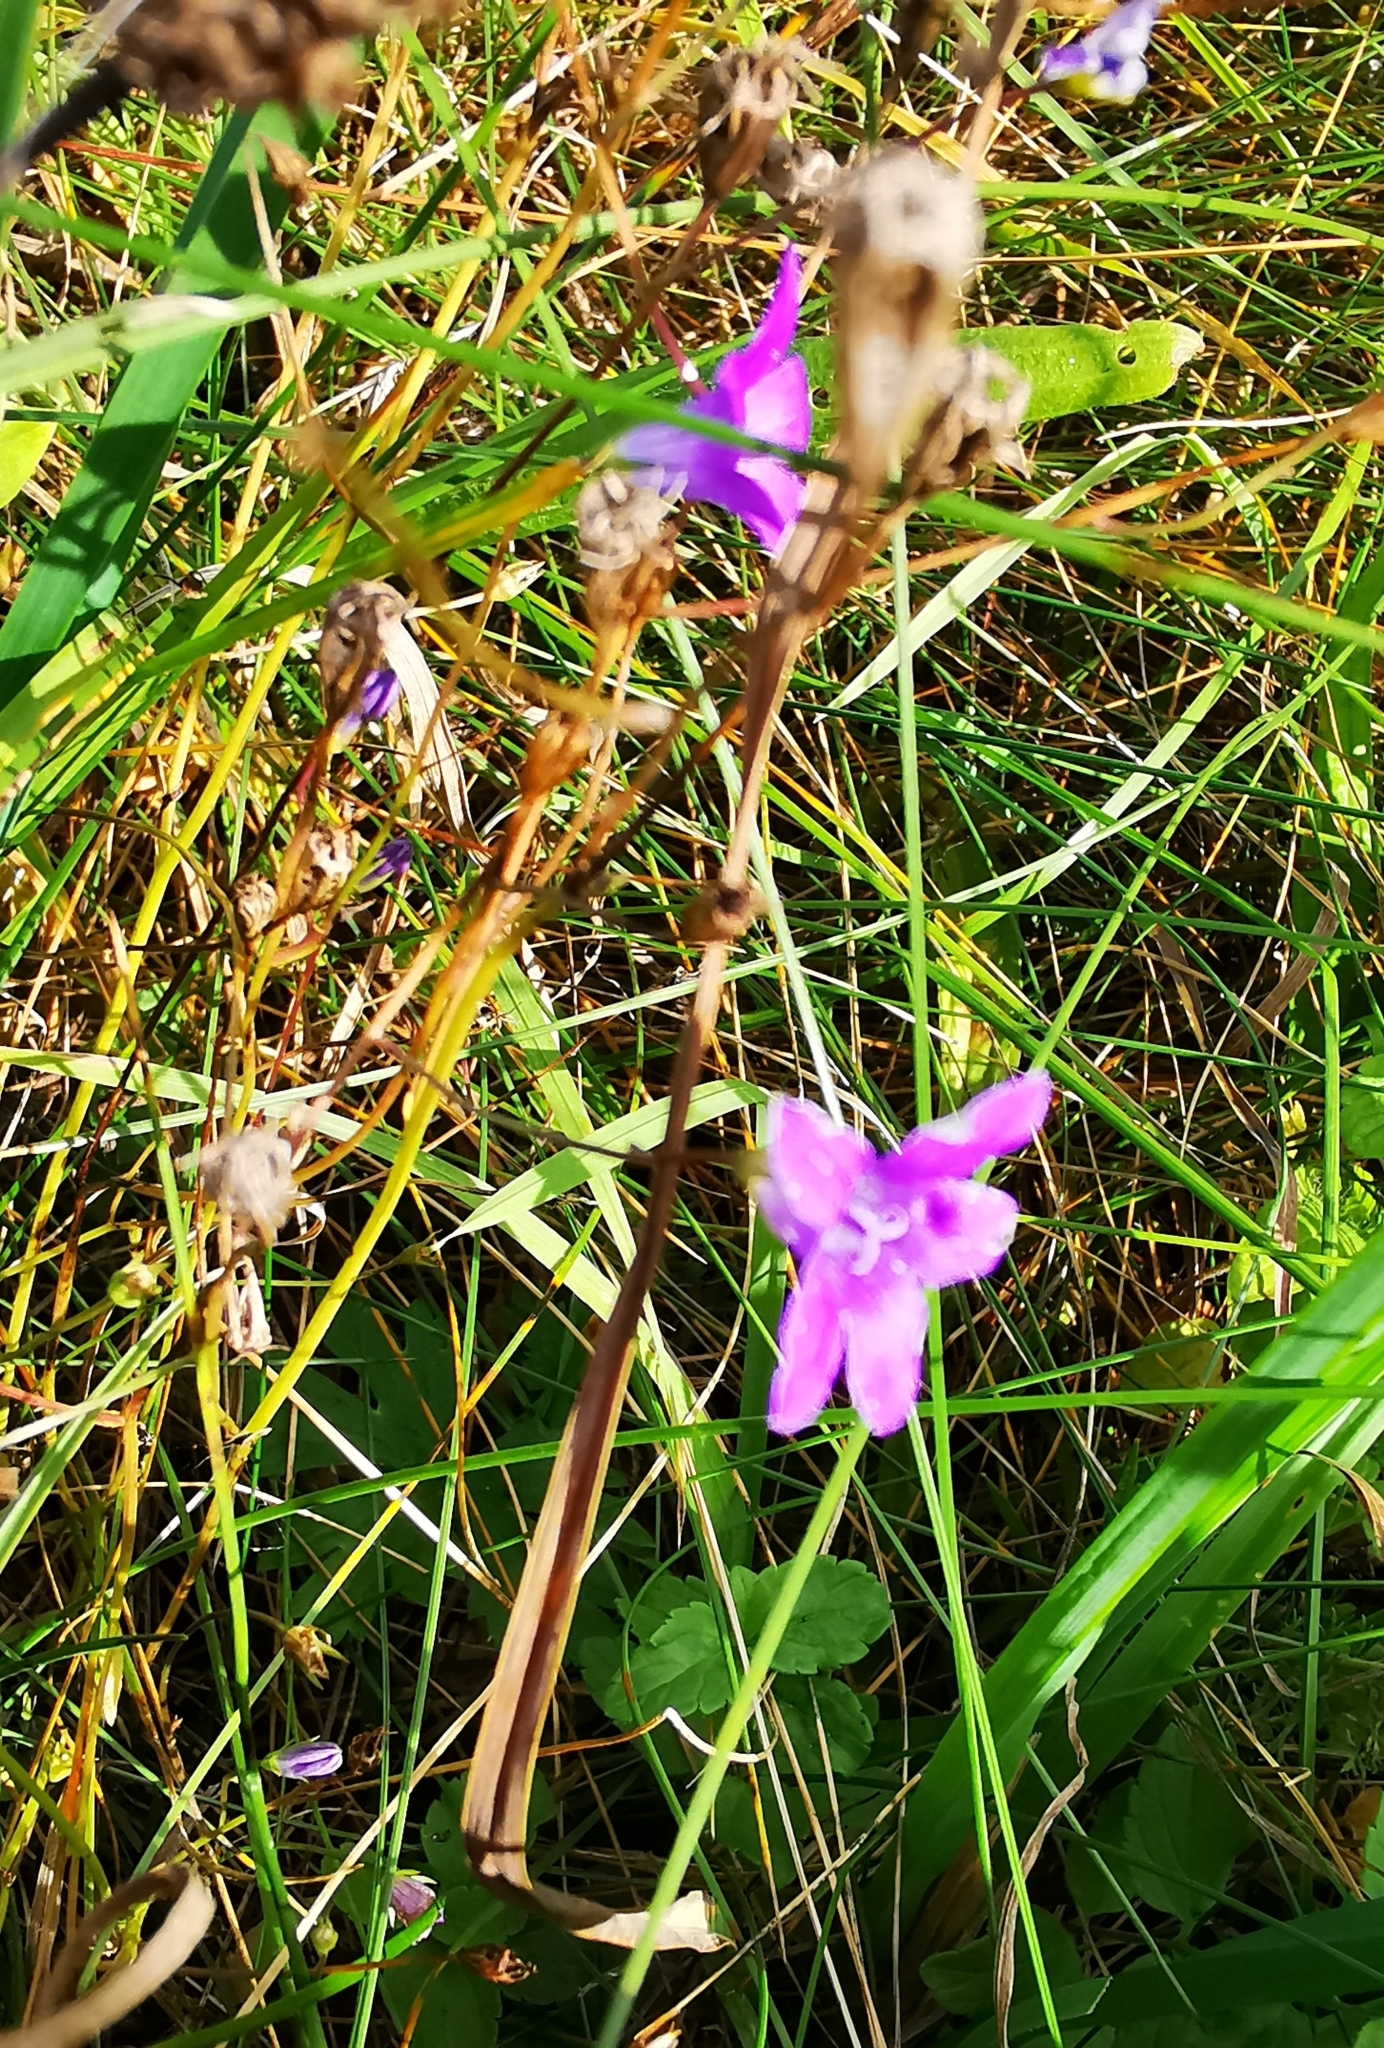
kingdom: Plantae
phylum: Tracheophyta
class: Magnoliopsida
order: Asterales
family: Campanulaceae
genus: Campanula
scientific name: Campanula patula
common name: Spreading bellflower
